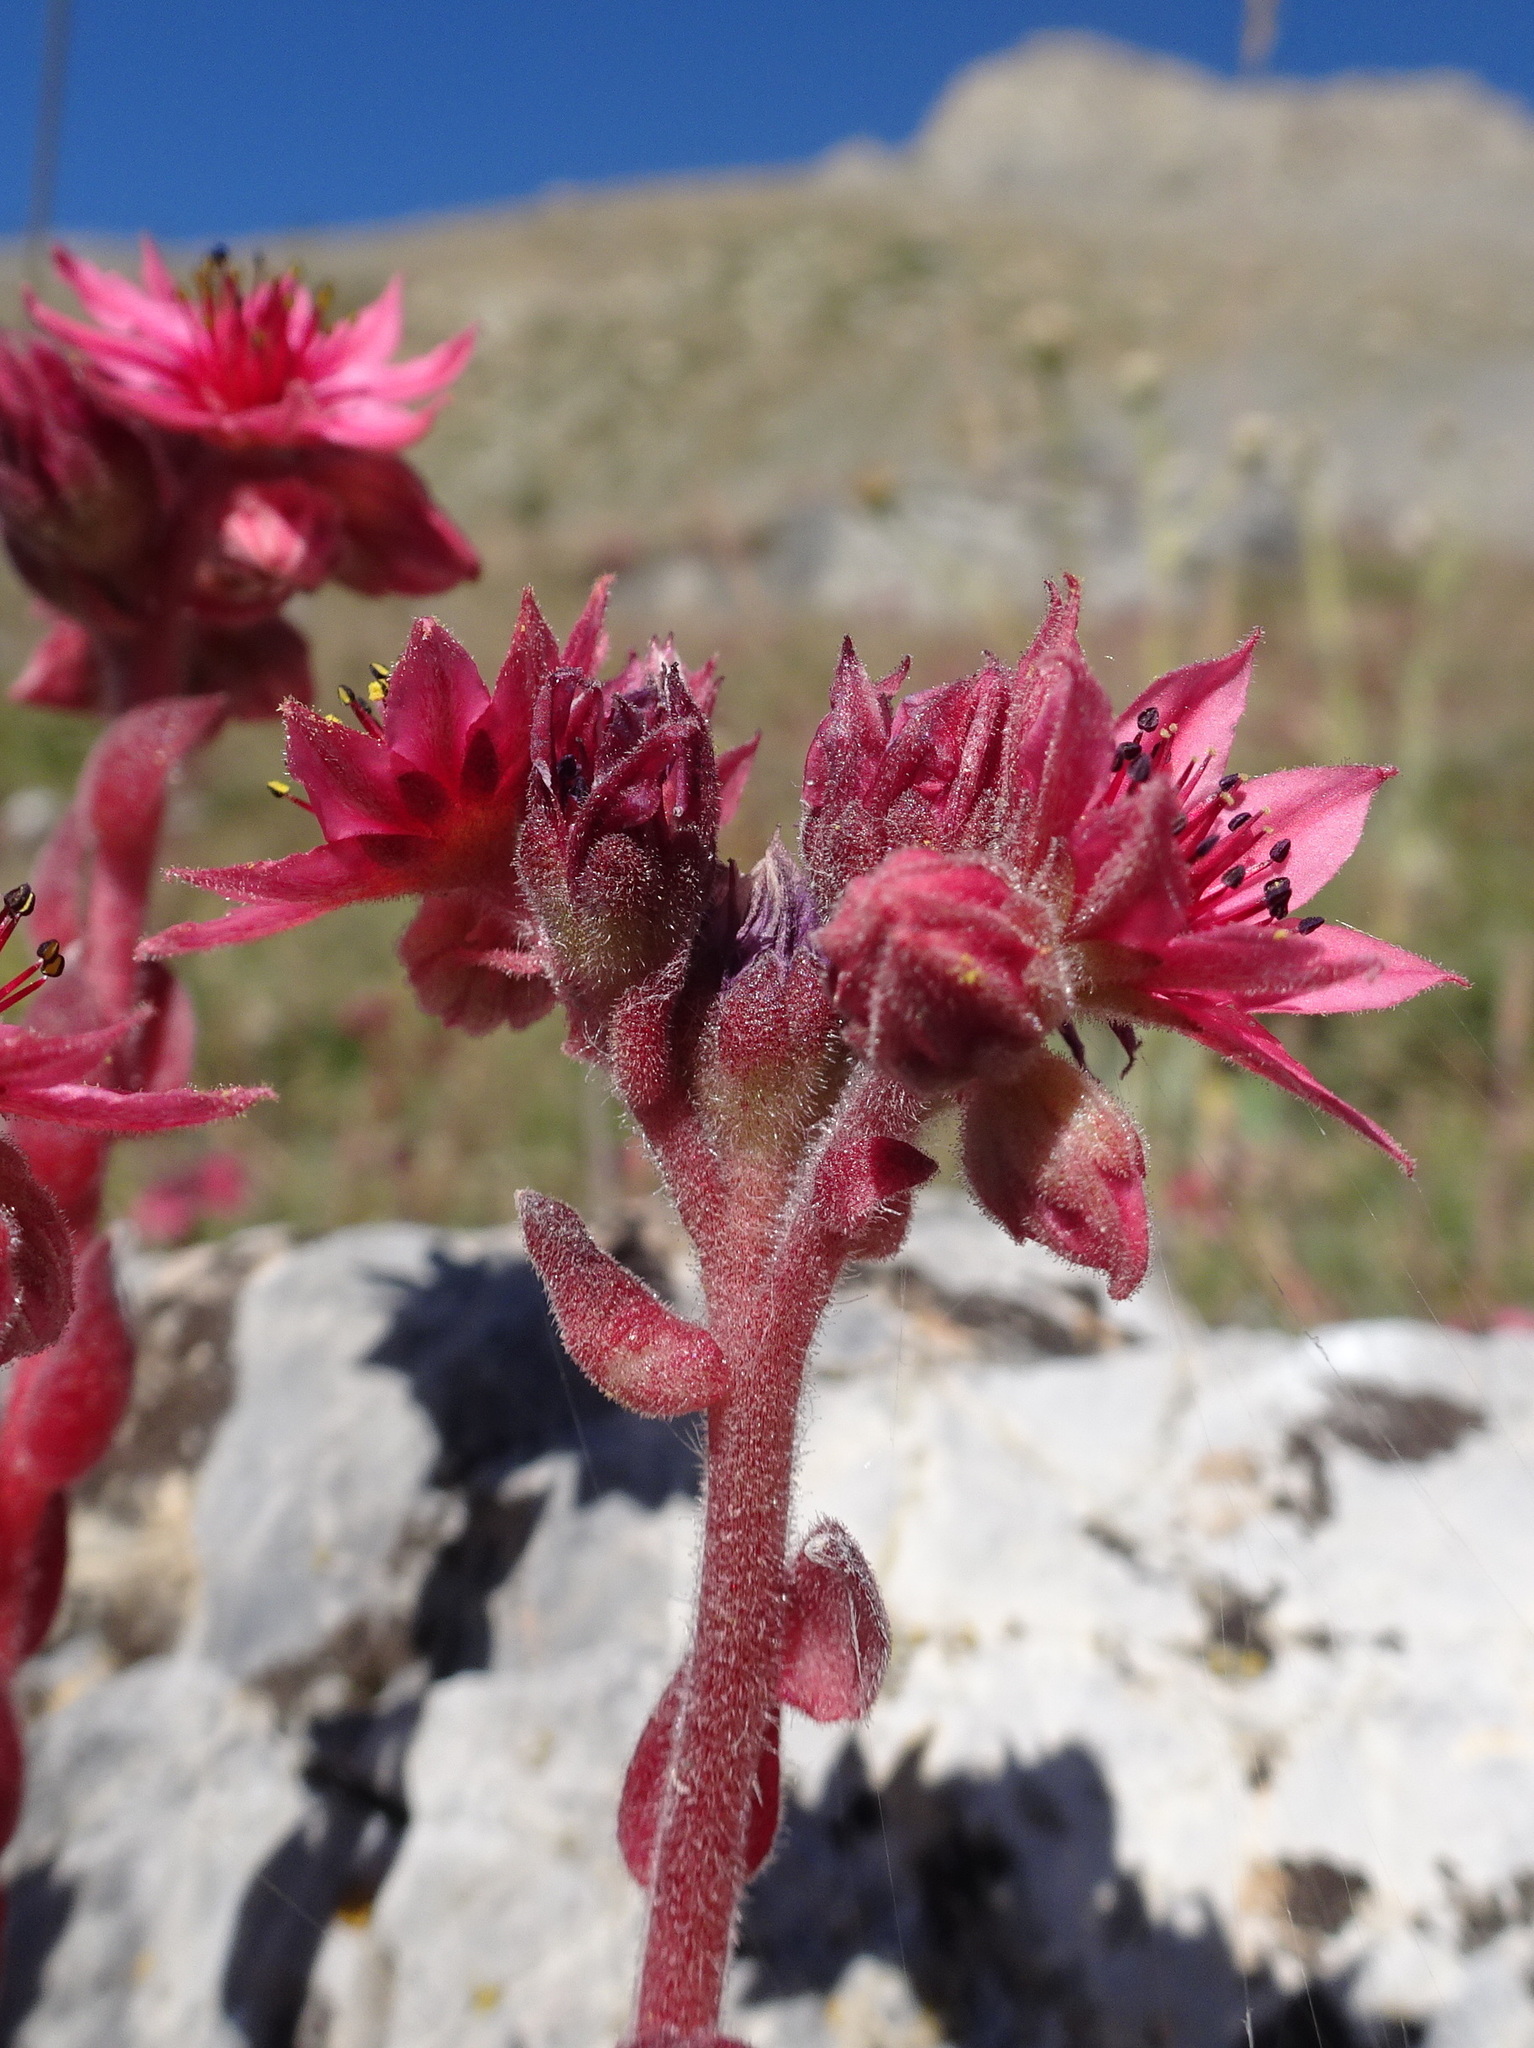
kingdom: Plantae
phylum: Tracheophyta
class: Magnoliopsida
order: Saxifragales
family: Crassulaceae
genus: Sempervivum
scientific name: Sempervivum arachnoideum
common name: Cobweb house-leek
